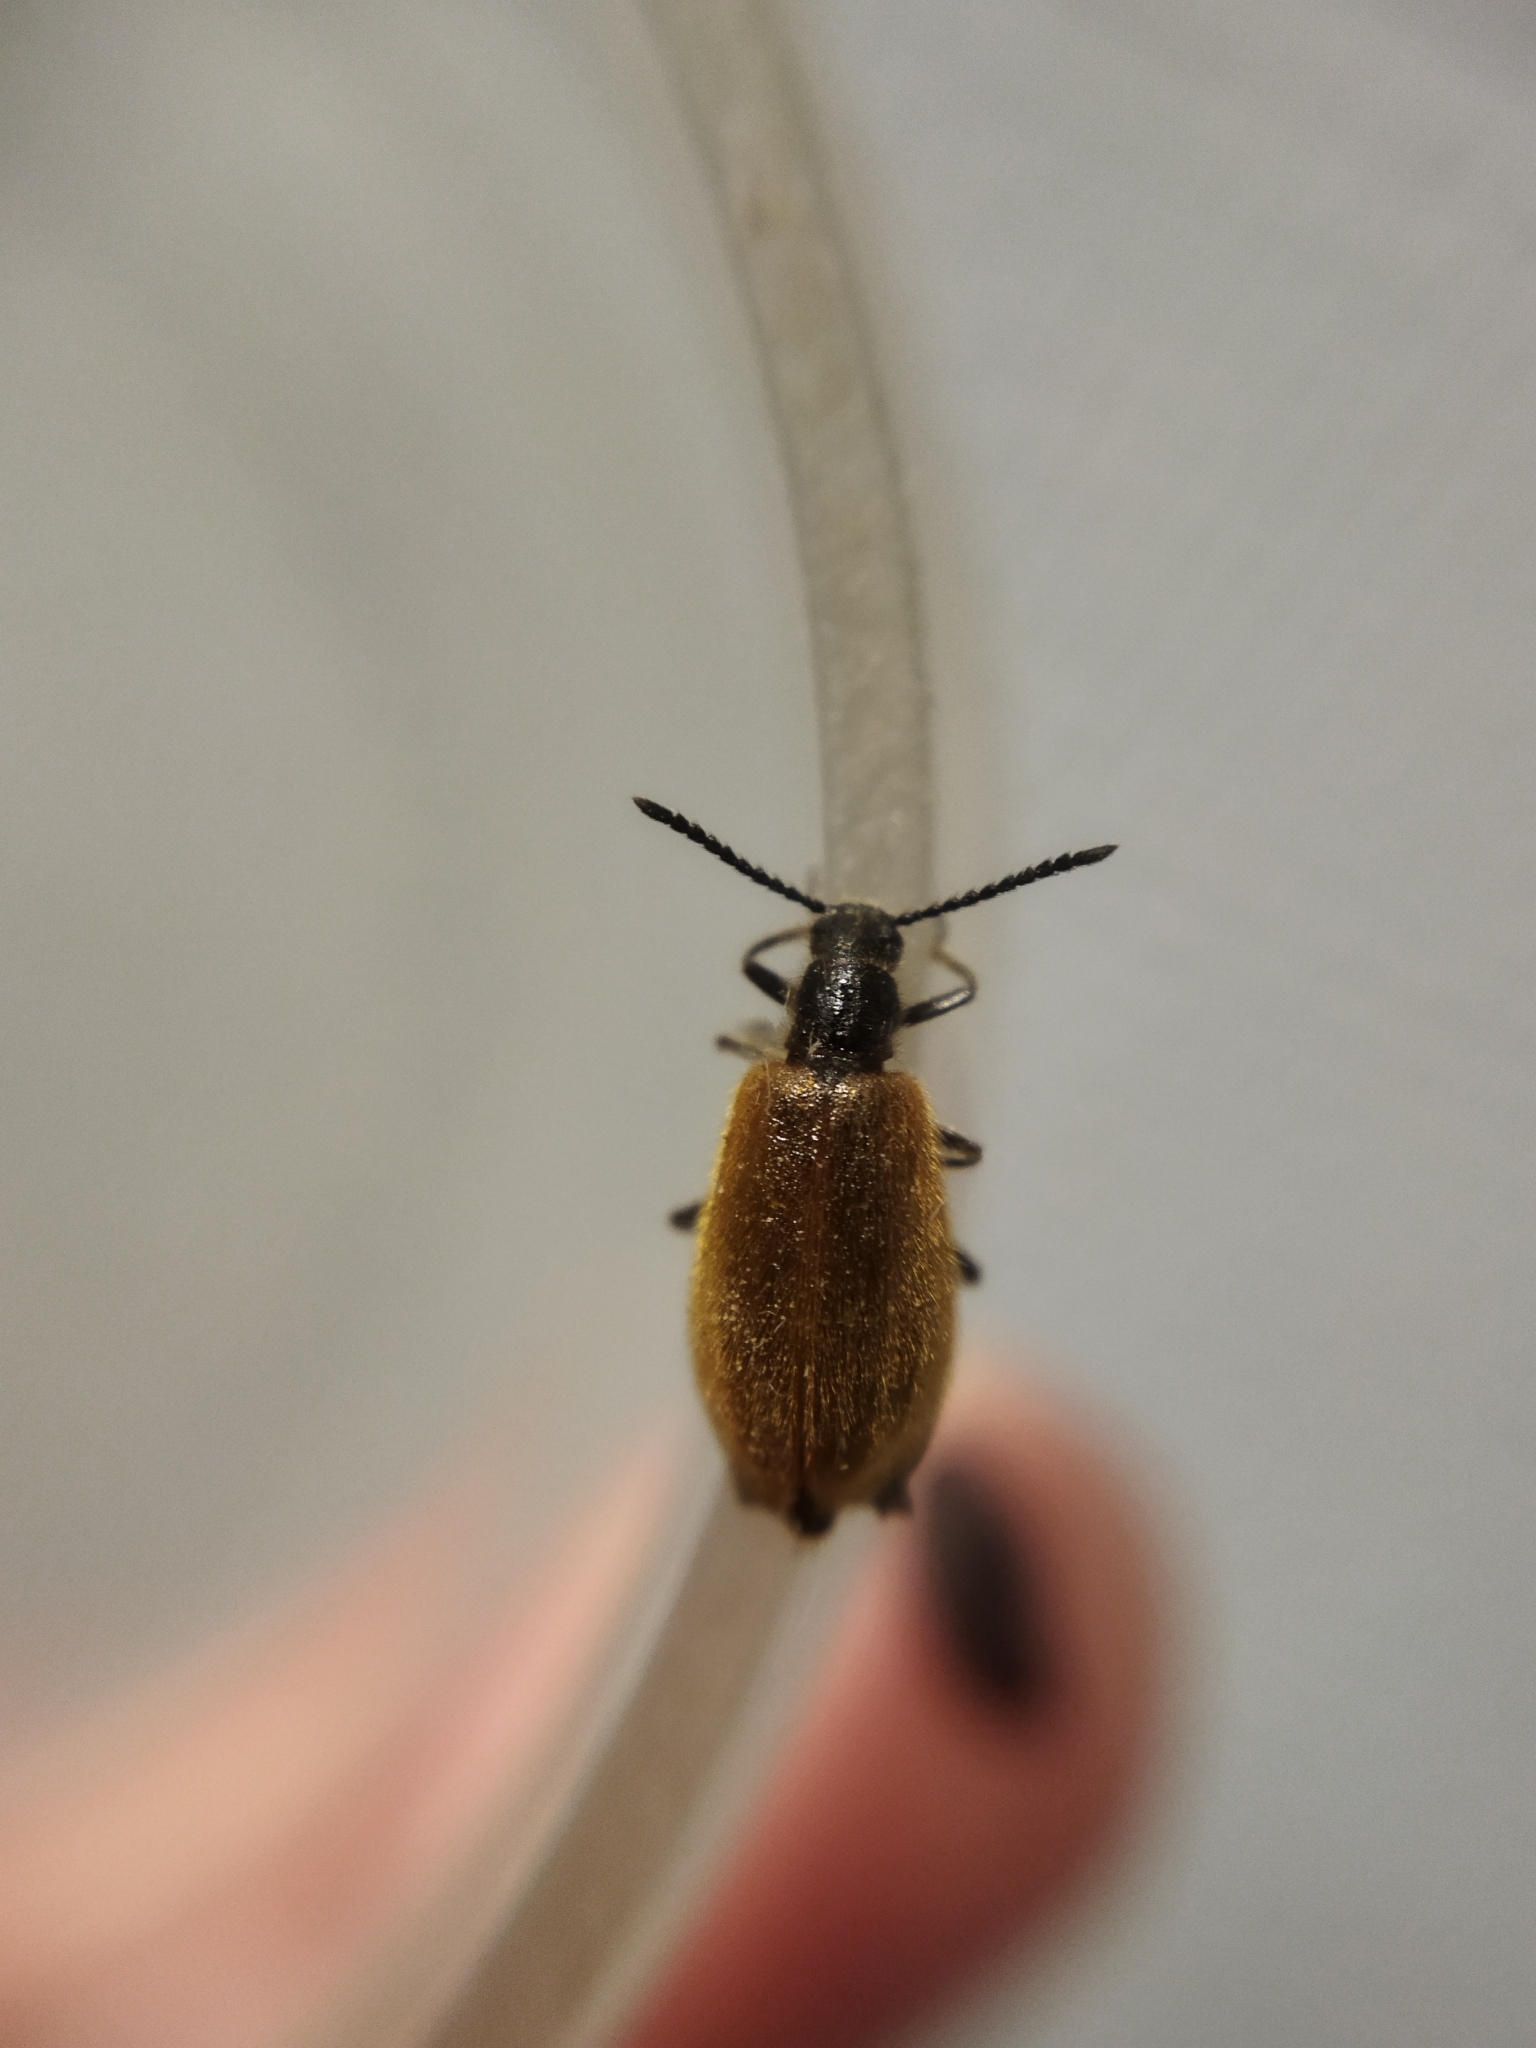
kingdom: Animalia
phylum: Arthropoda
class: Insecta
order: Coleoptera
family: Tenebrionidae
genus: Lagria
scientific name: Lagria hirta
